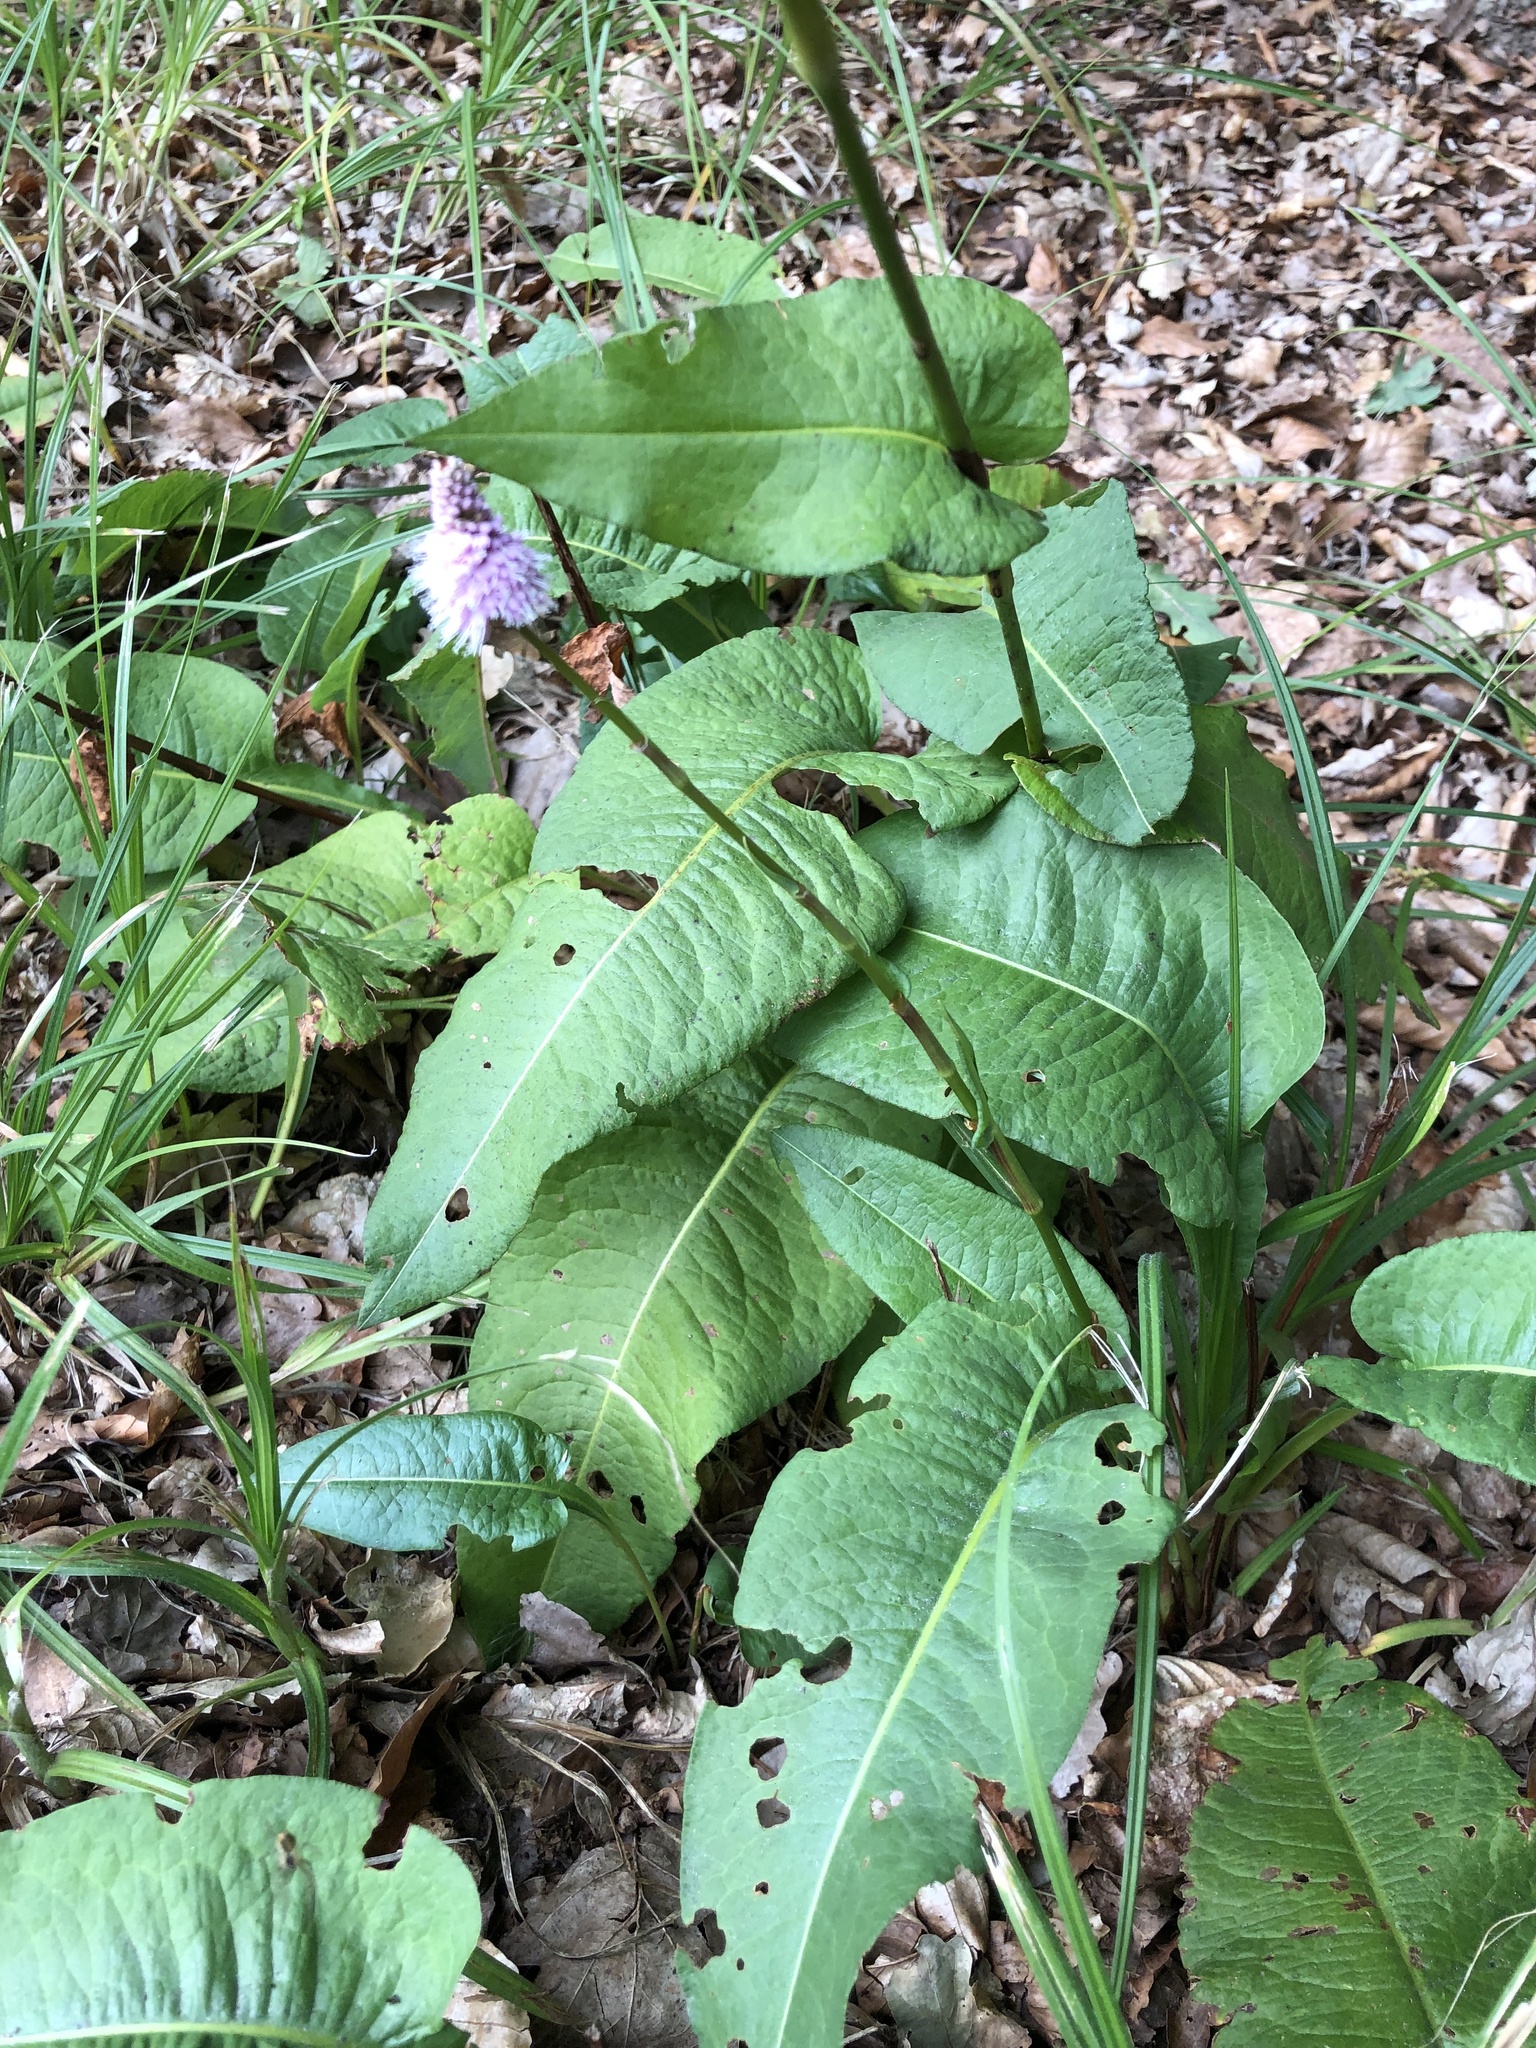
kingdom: Plantae
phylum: Tracheophyta
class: Magnoliopsida
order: Caryophyllales
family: Polygonaceae
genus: Bistorta
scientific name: Bistorta officinalis
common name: Common bistort
